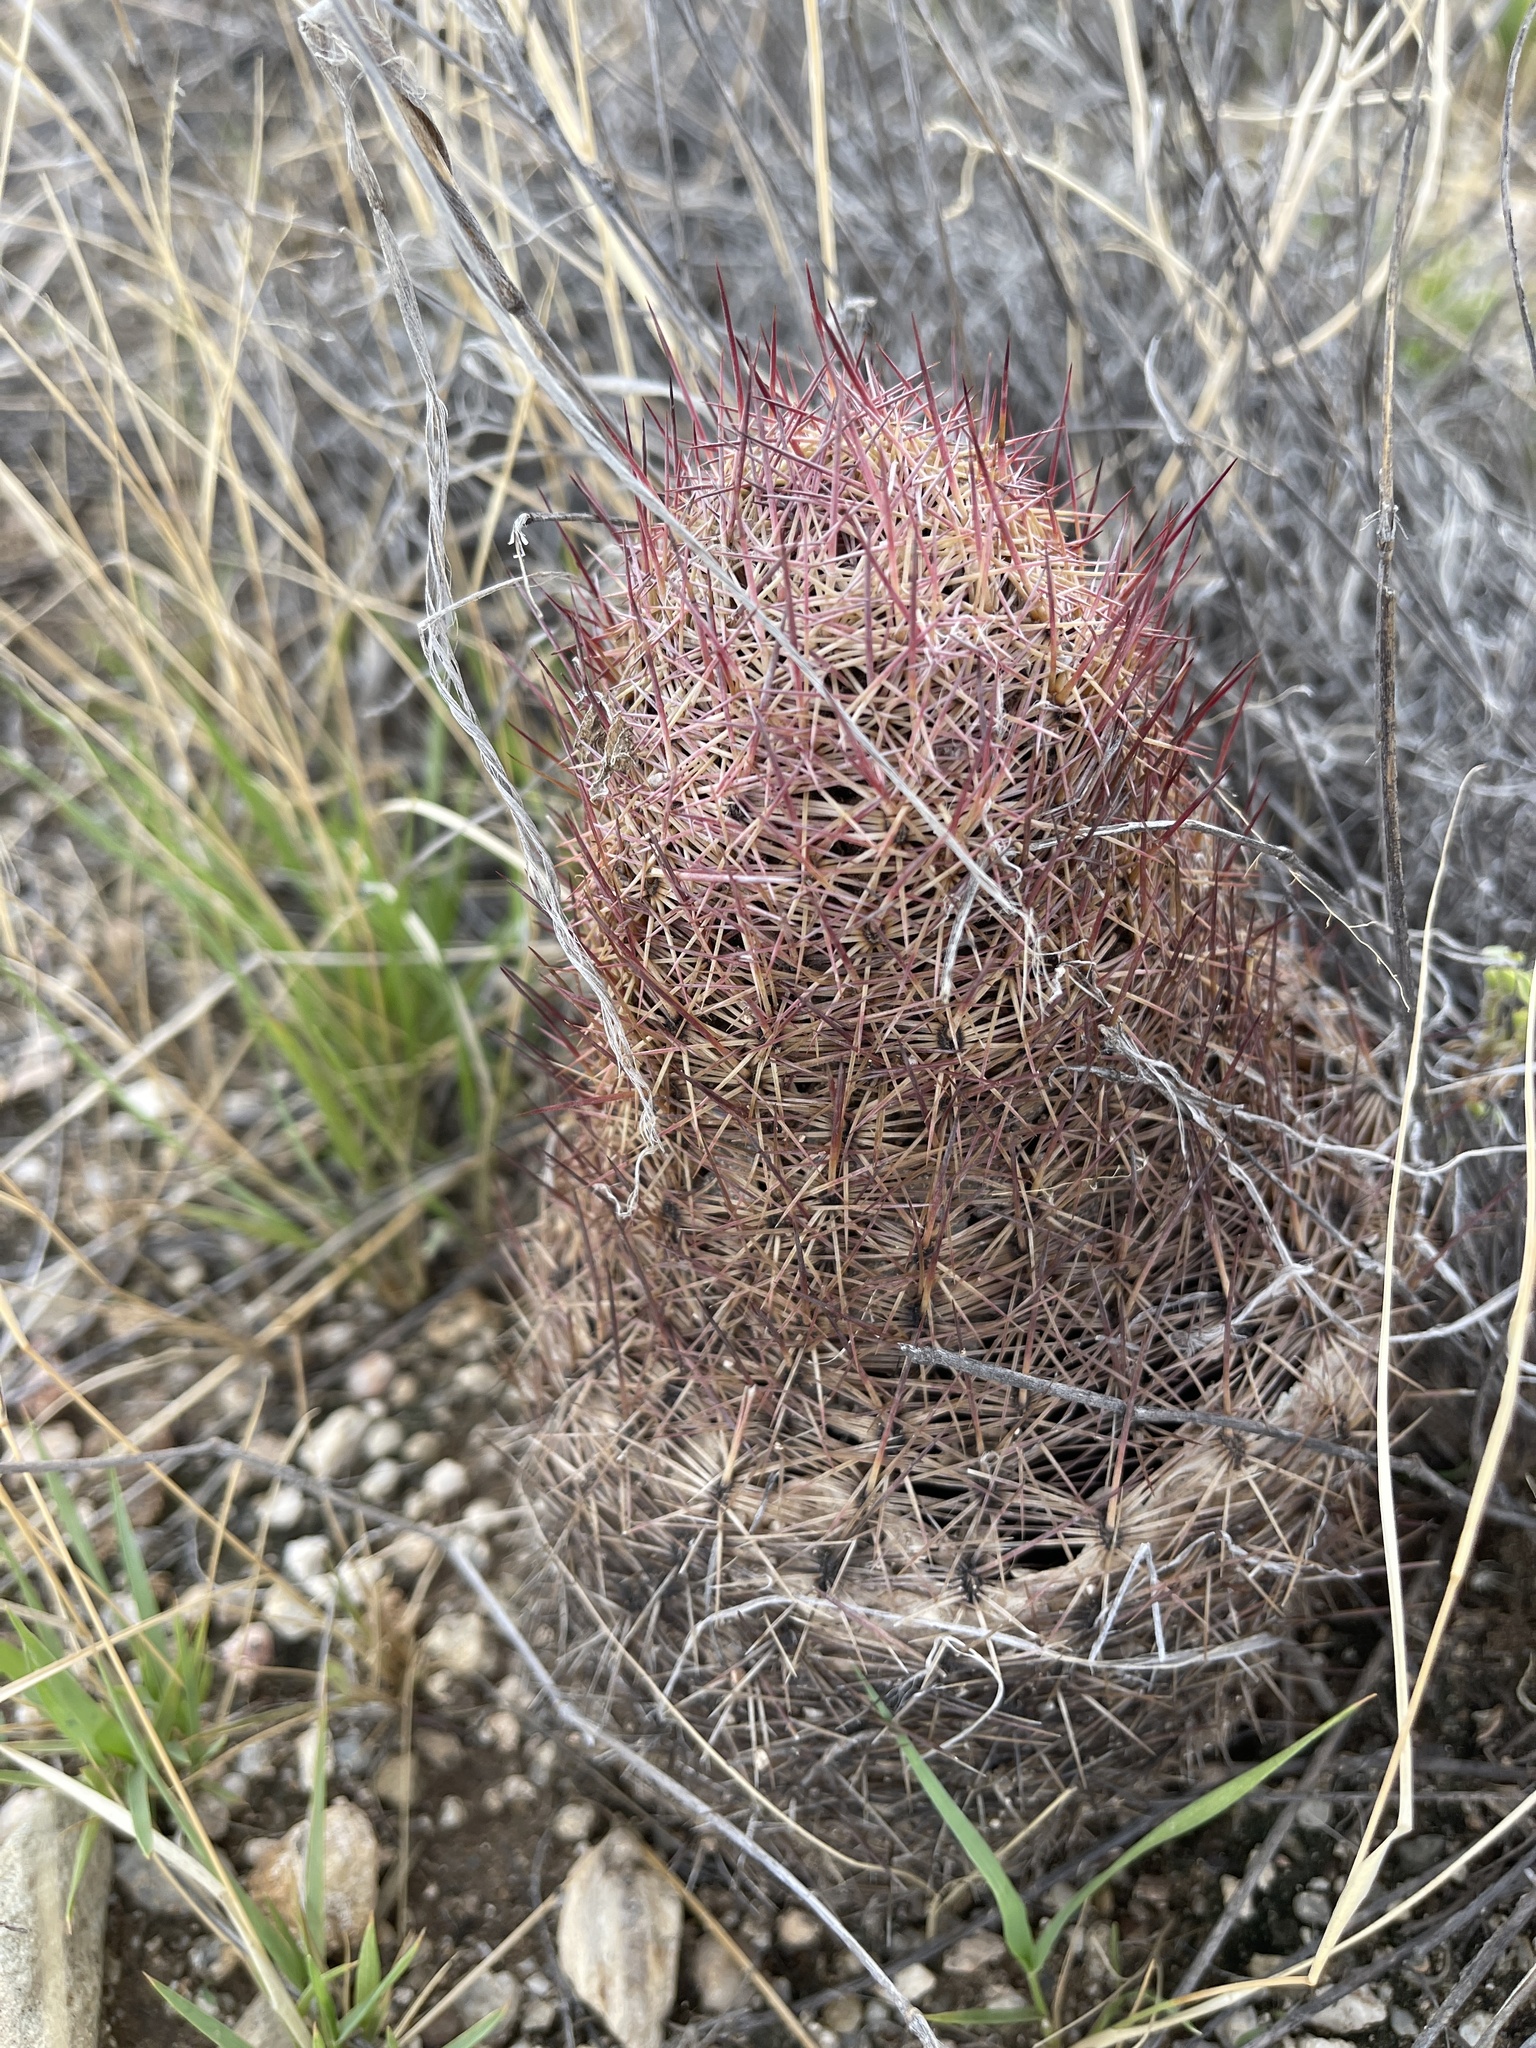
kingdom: Plantae
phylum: Tracheophyta
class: Magnoliopsida
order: Caryophyllales
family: Cactaceae
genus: Sclerocactus
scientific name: Sclerocactus johnsonii
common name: Eight-spine fishhook cactus
